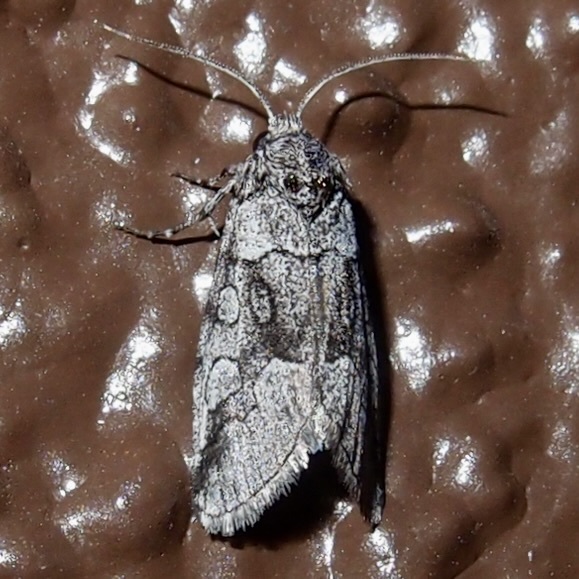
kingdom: Animalia
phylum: Arthropoda
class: Insecta
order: Lepidoptera
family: Noctuidae
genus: Oxycnemis
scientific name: Oxycnemis advena
